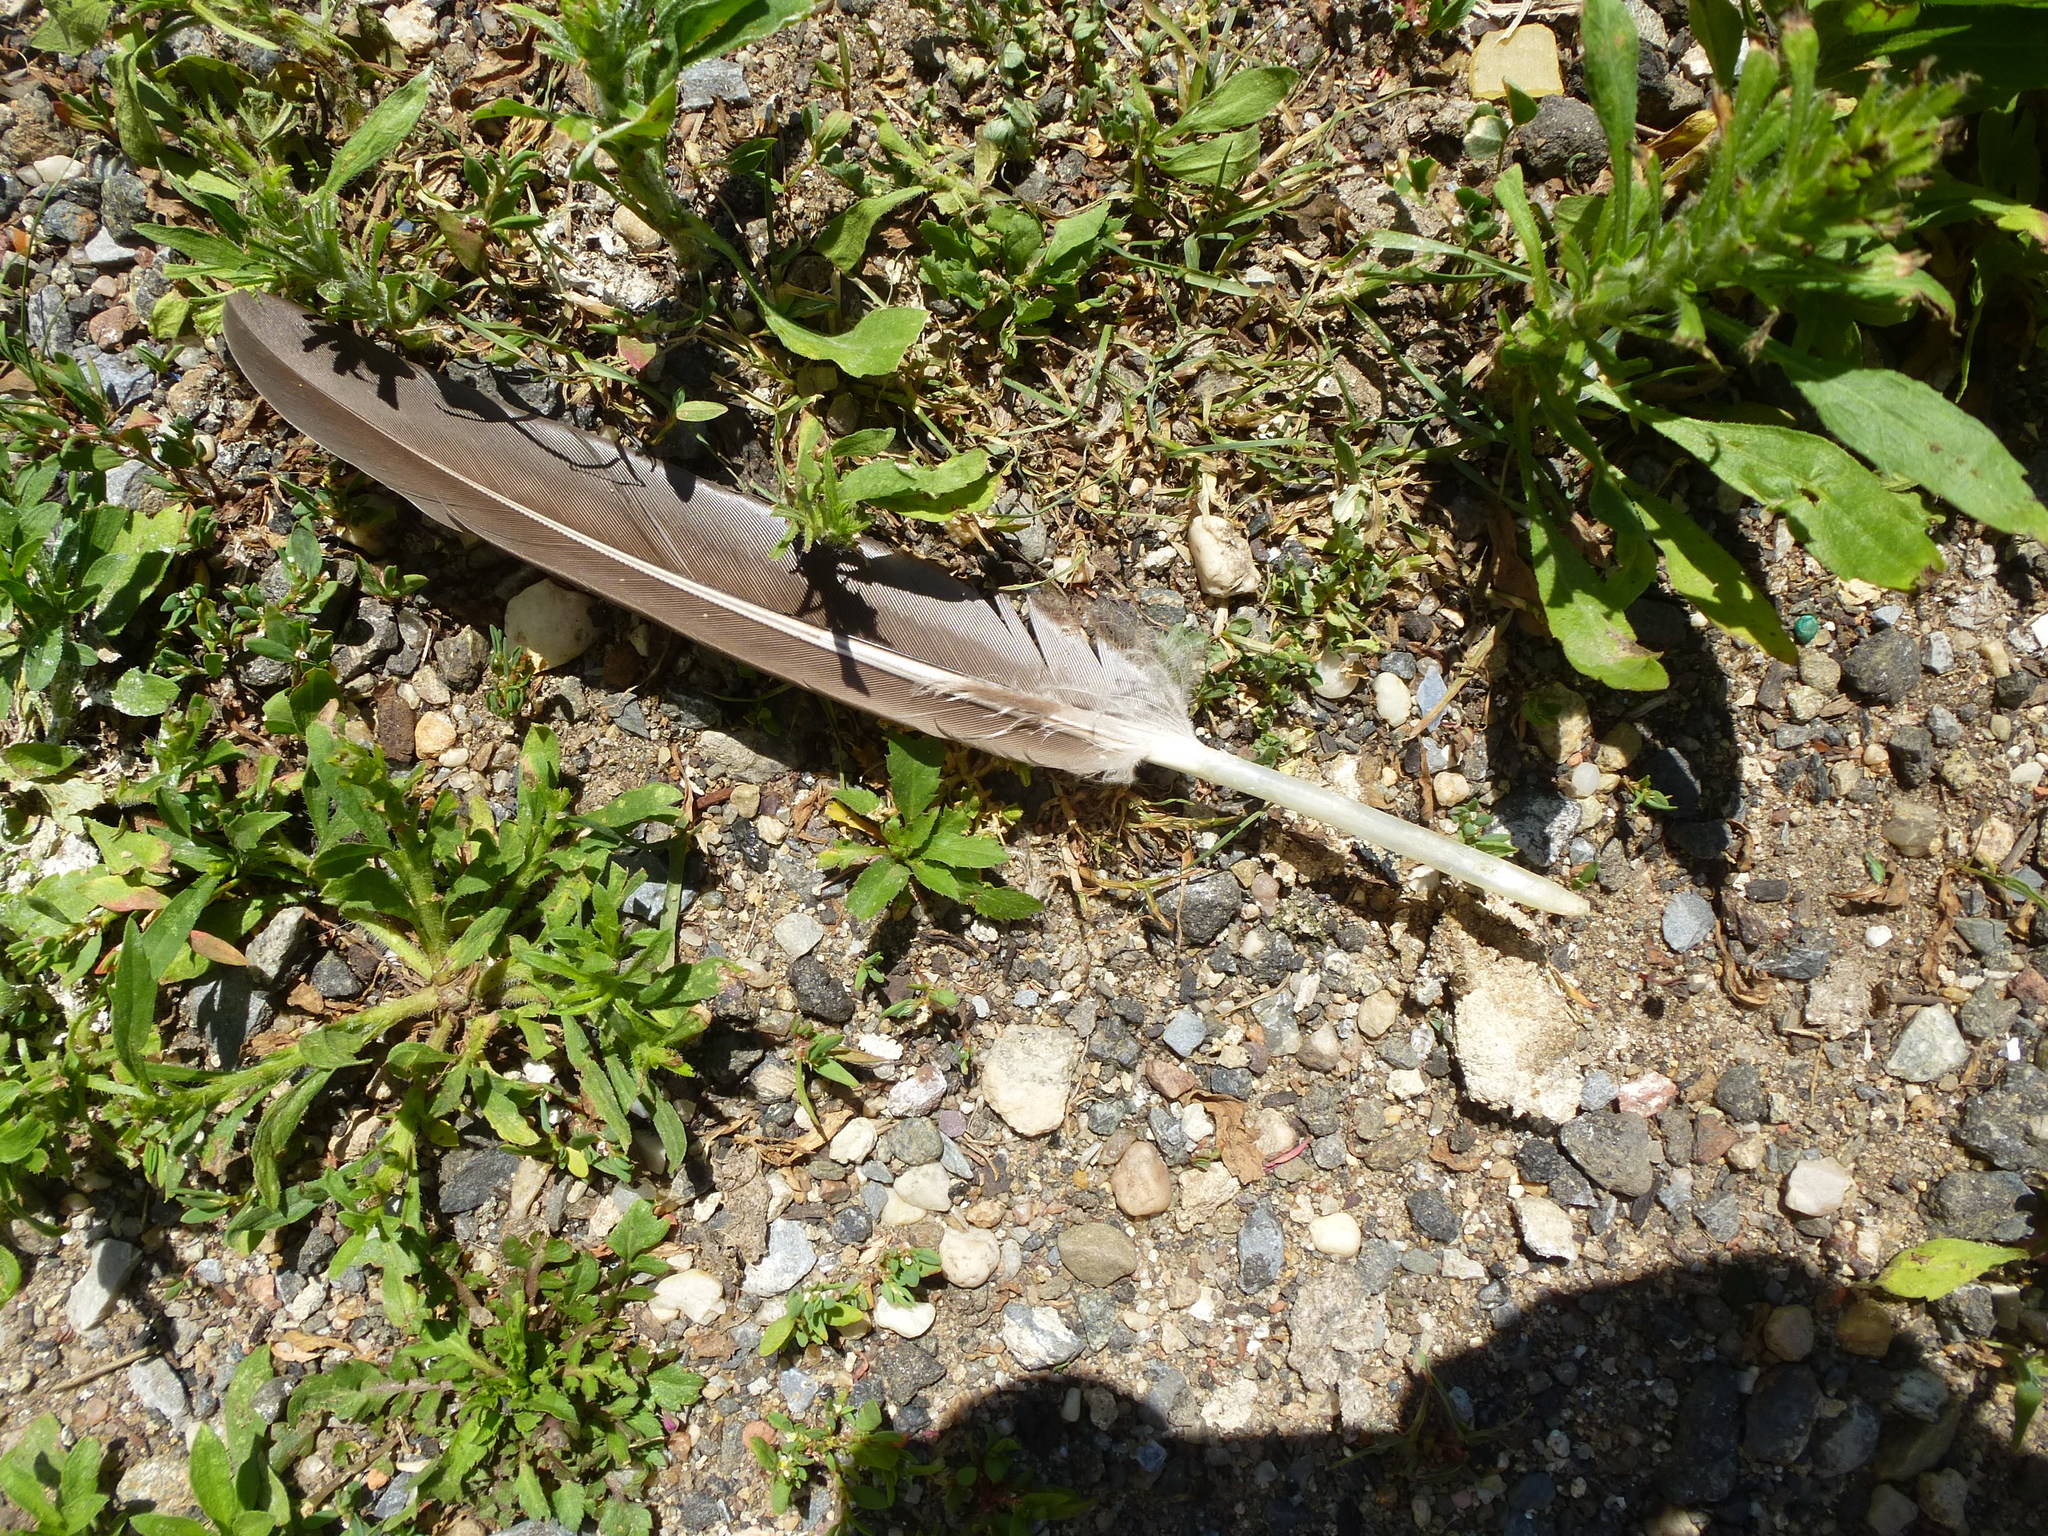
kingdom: Animalia
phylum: Chordata
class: Aves
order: Anseriformes
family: Anatidae
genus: Branta
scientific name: Branta canadensis
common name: Canada goose
